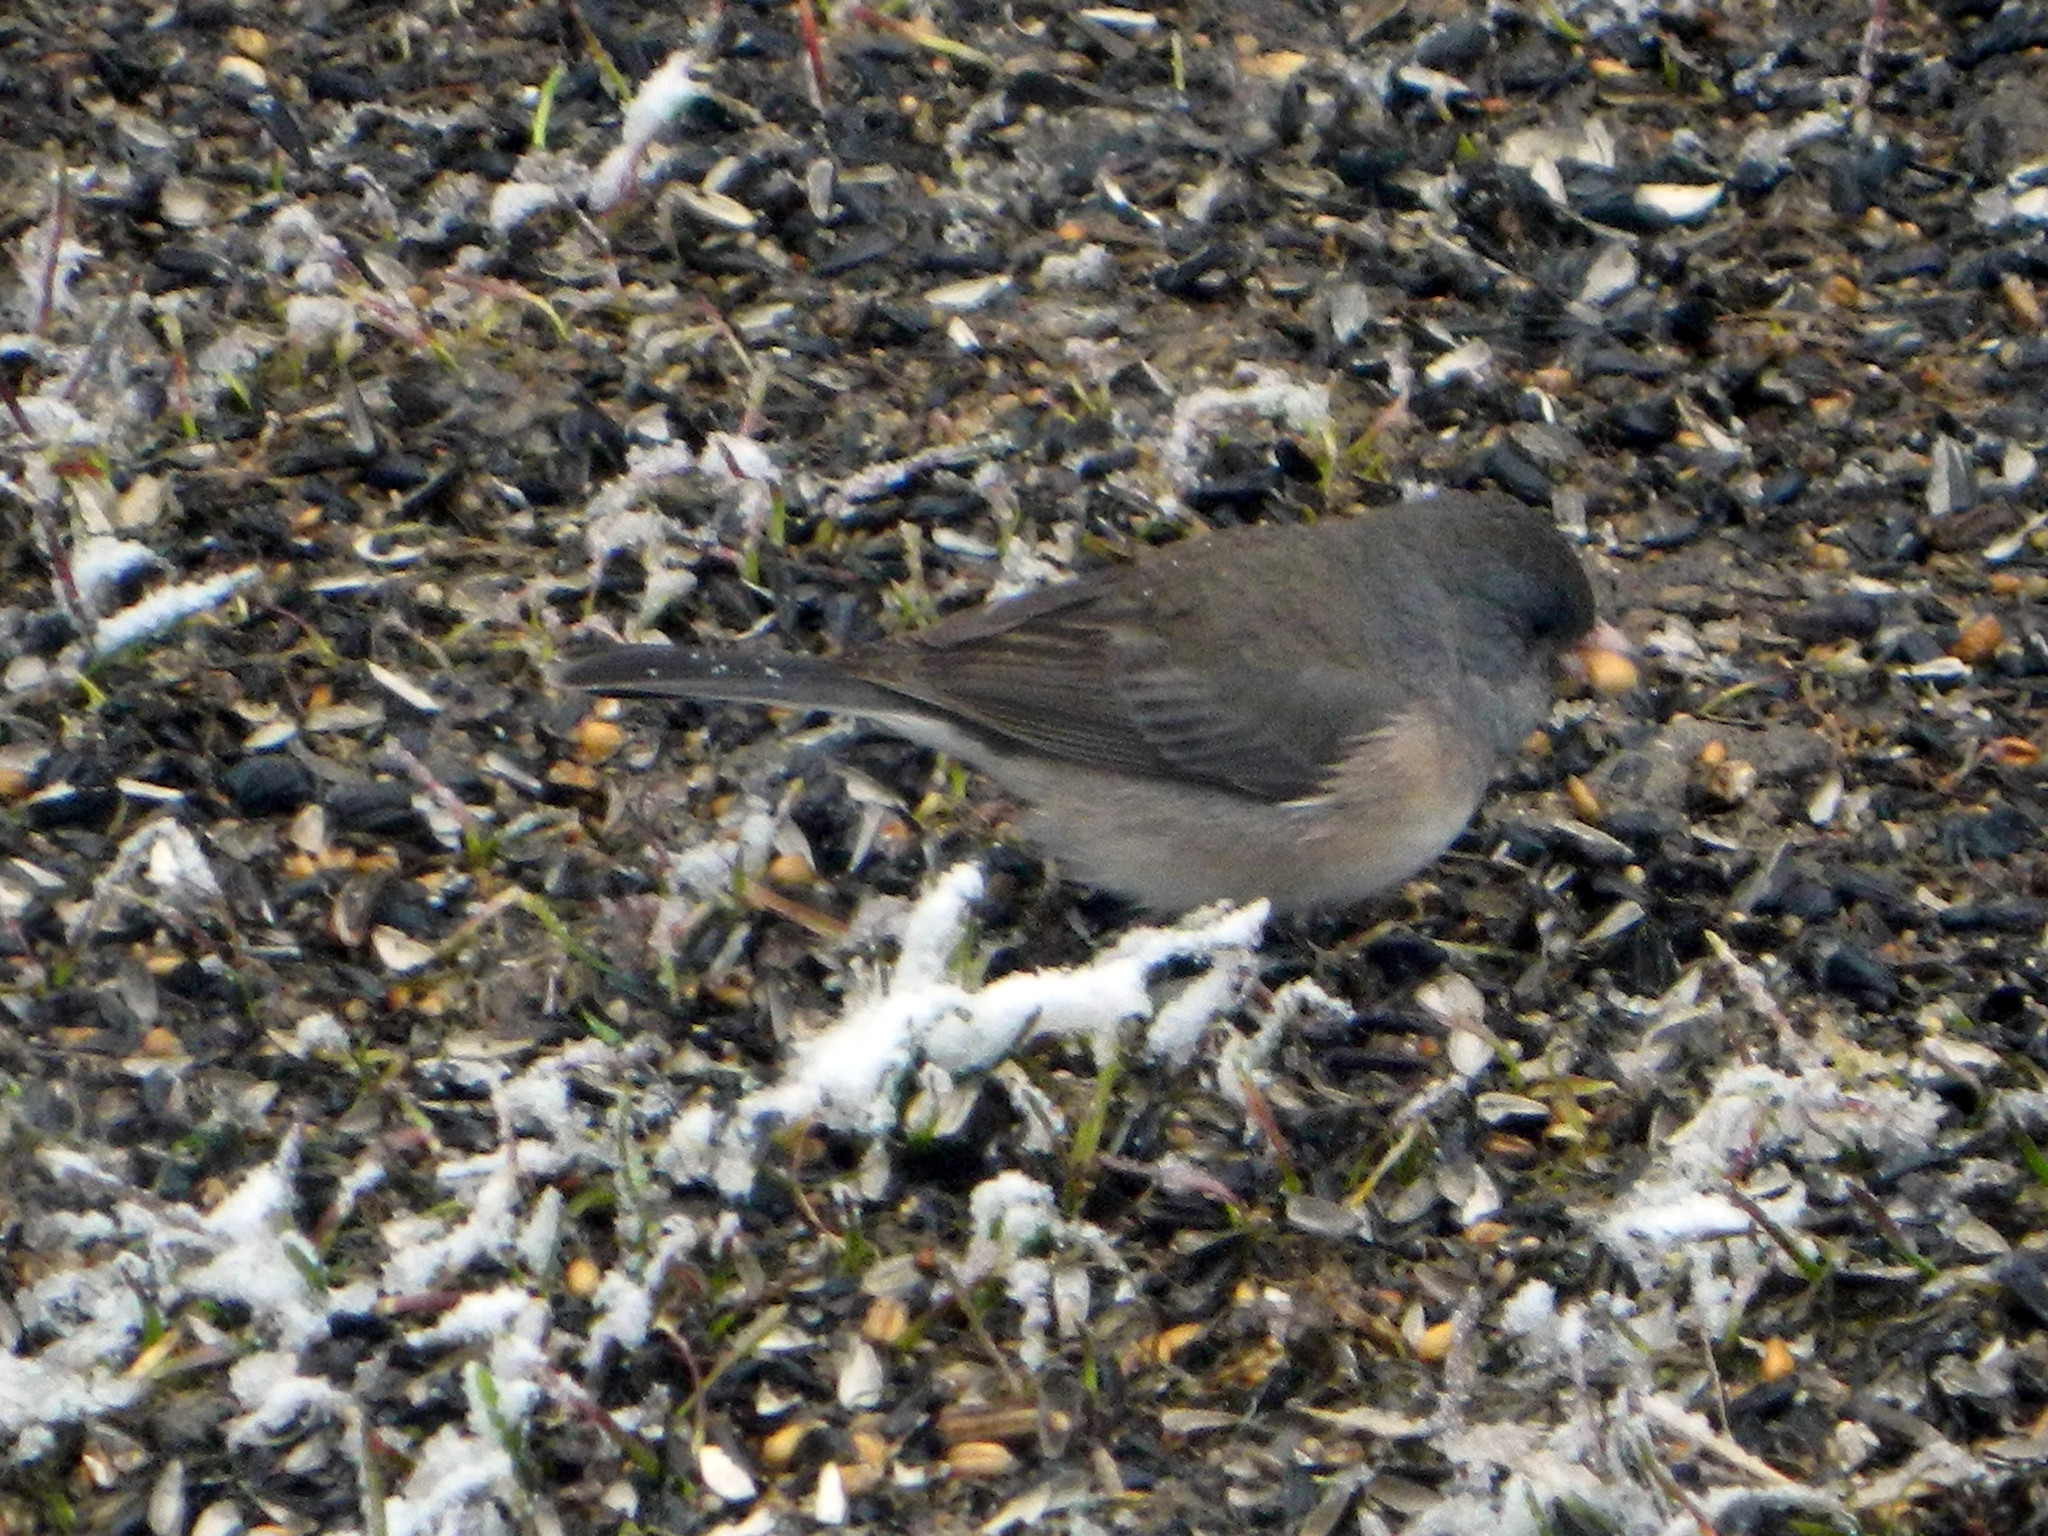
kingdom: Animalia
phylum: Chordata
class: Aves
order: Passeriformes
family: Passerellidae
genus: Junco
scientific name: Junco hyemalis
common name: Dark-eyed junco
